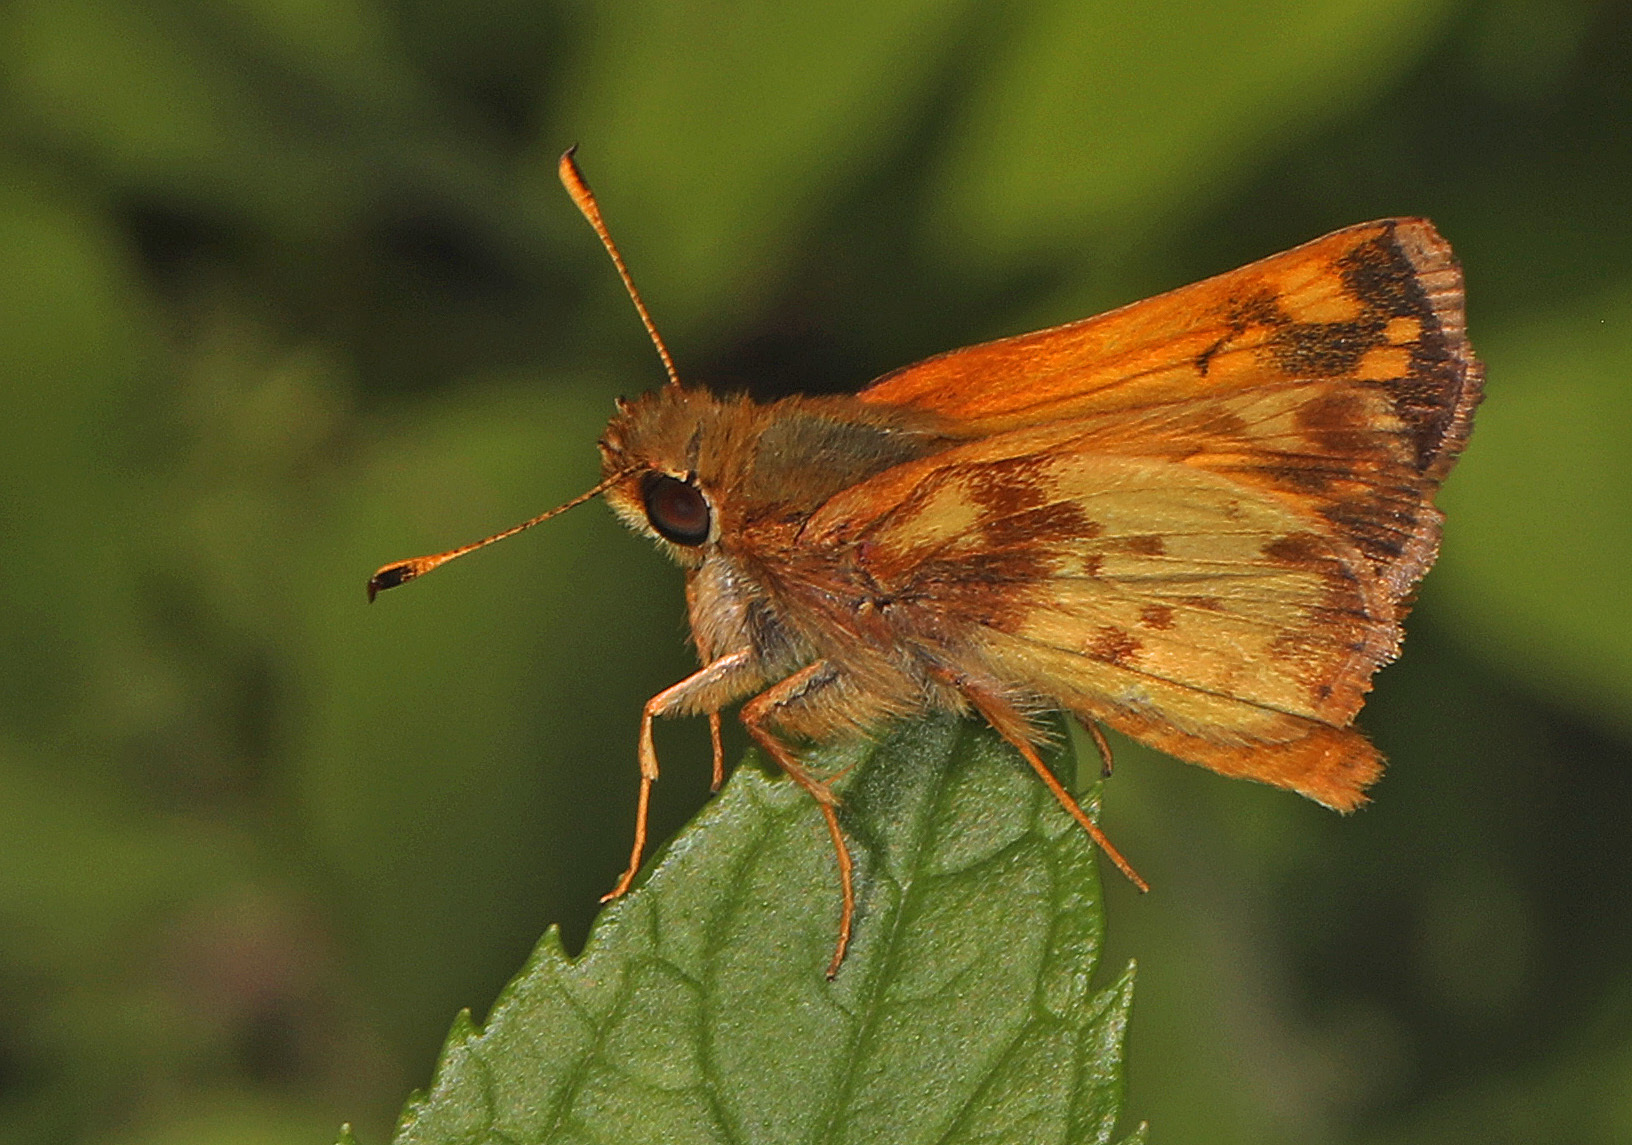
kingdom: Animalia
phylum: Arthropoda
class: Insecta
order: Lepidoptera
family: Hesperiidae
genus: Lon
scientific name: Lon zabulon
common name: Zabulon skipper
